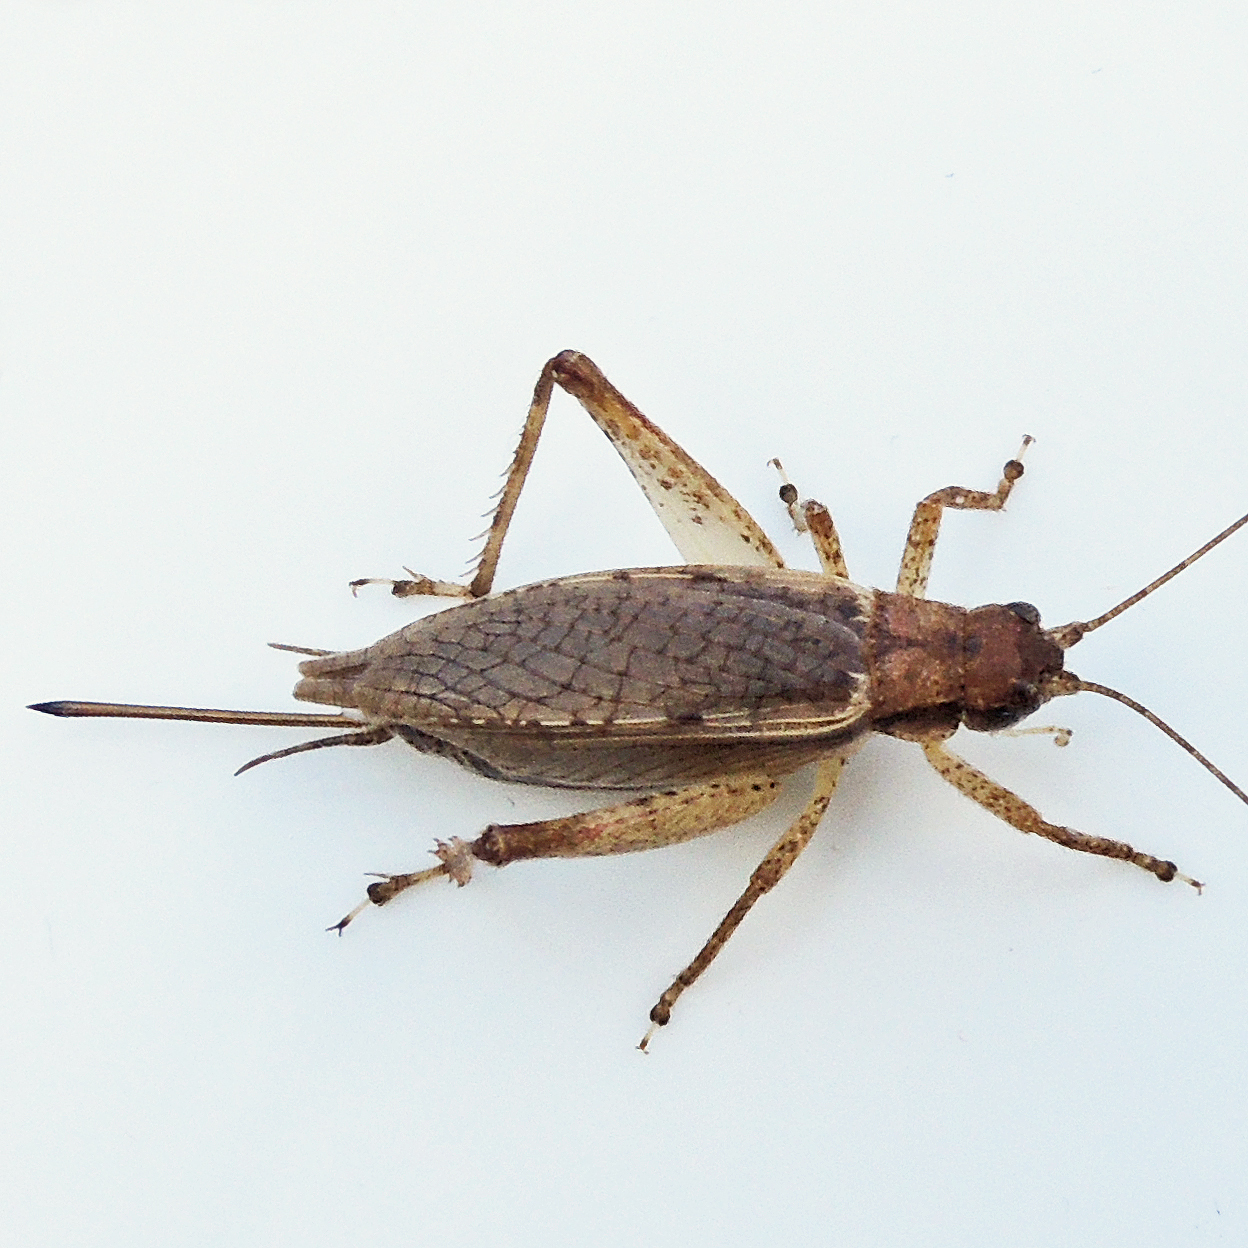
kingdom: Animalia
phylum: Arthropoda
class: Insecta
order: Orthoptera
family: Gryllidae
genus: Hapithus
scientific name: Hapithus saltator
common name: Jumping bush cricket
